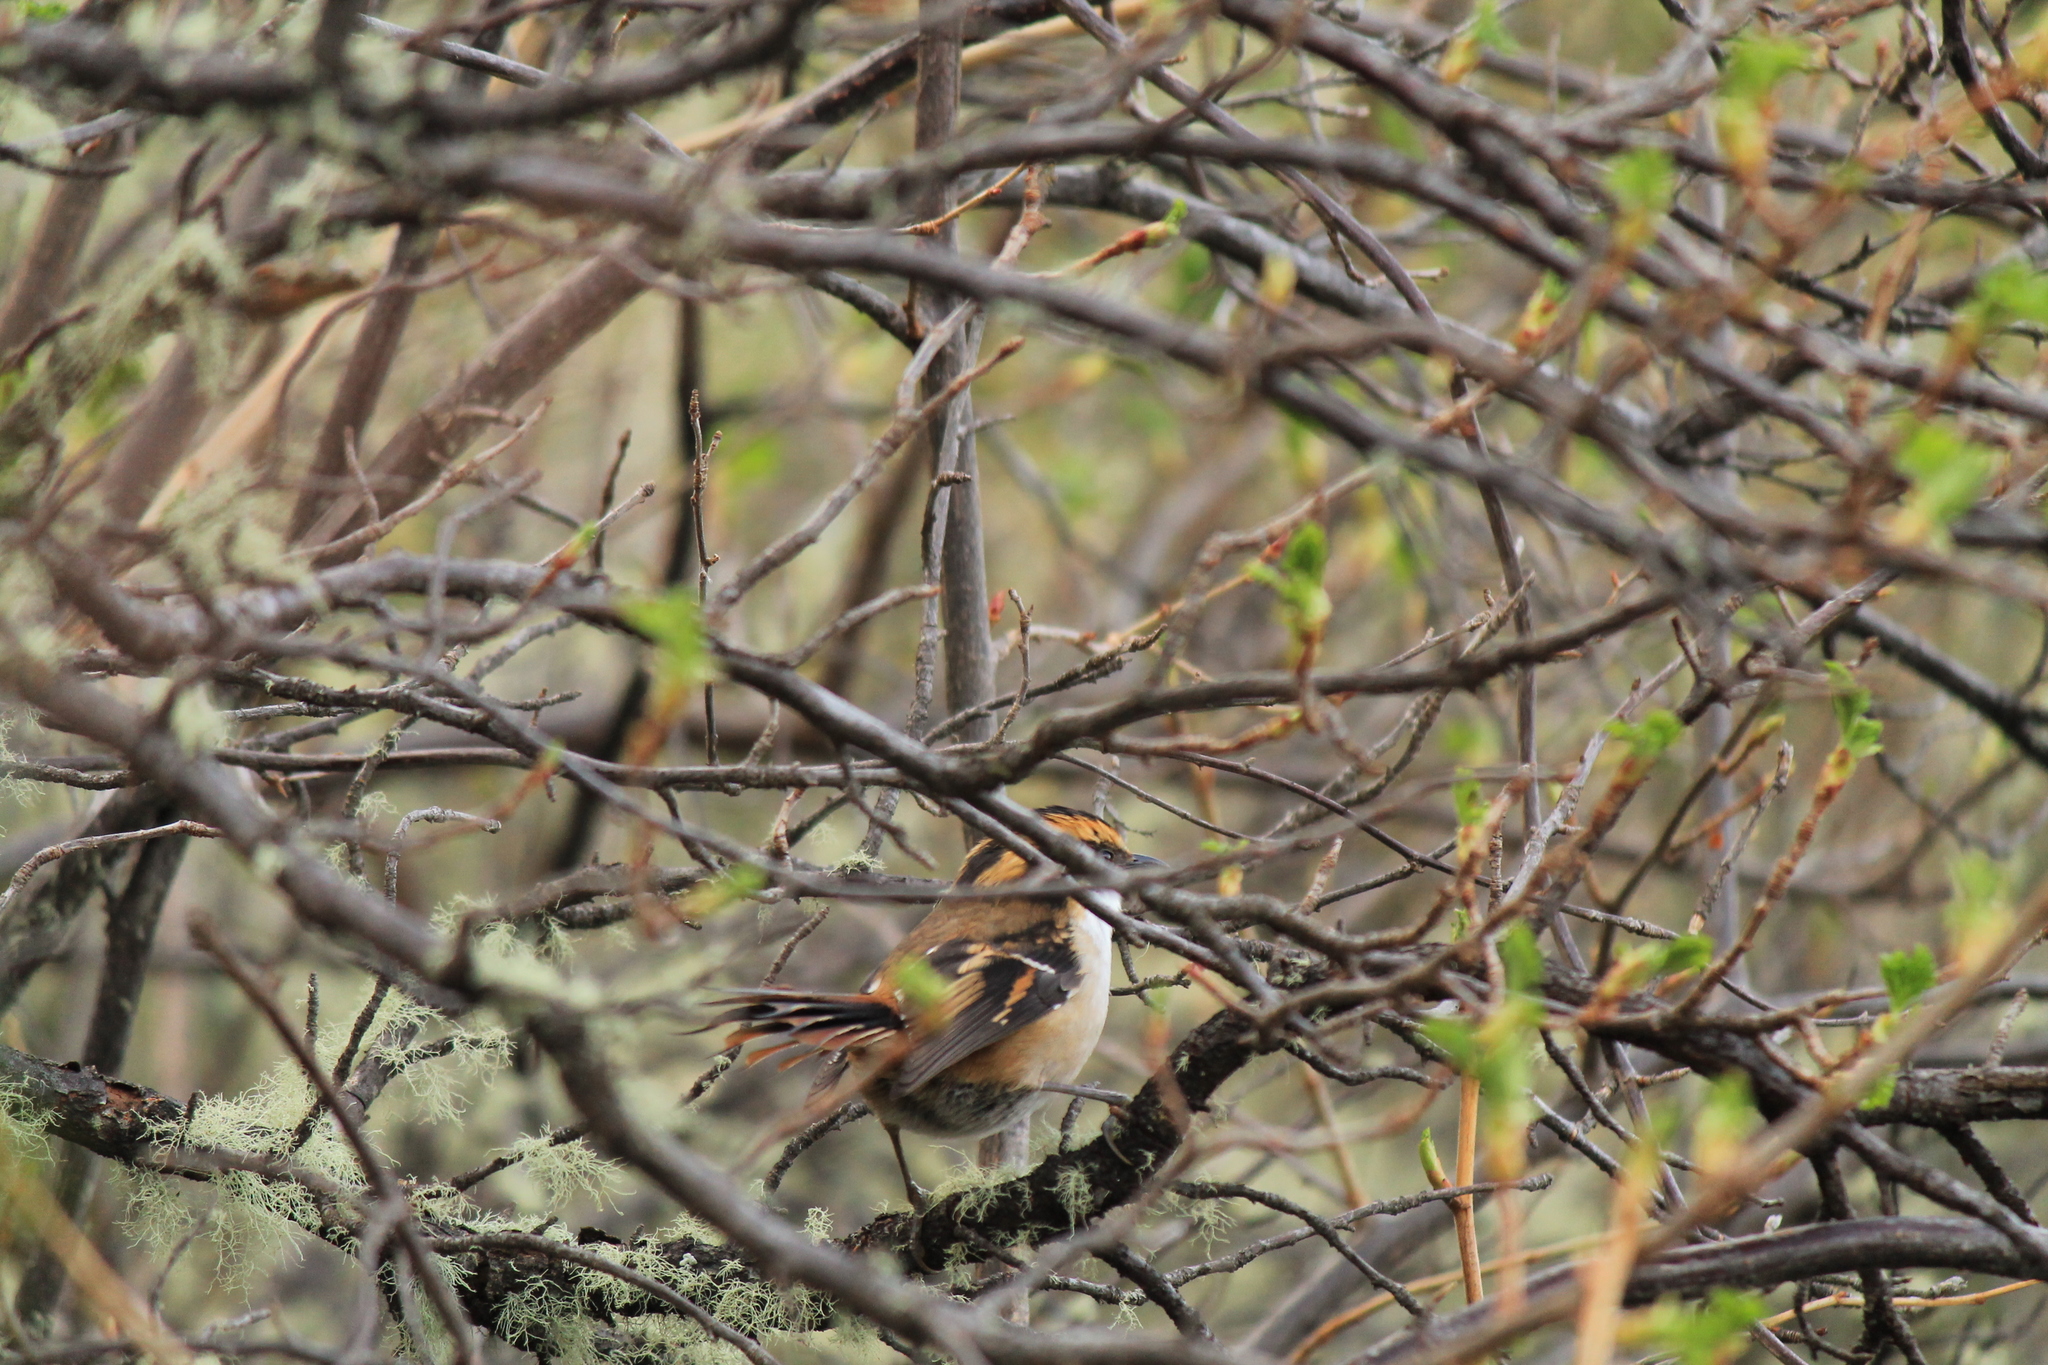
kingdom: Animalia
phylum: Chordata
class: Aves
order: Passeriformes
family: Furnariidae
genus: Aphrastura
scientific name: Aphrastura spinicauda
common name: Thorn-tailed rayadito
